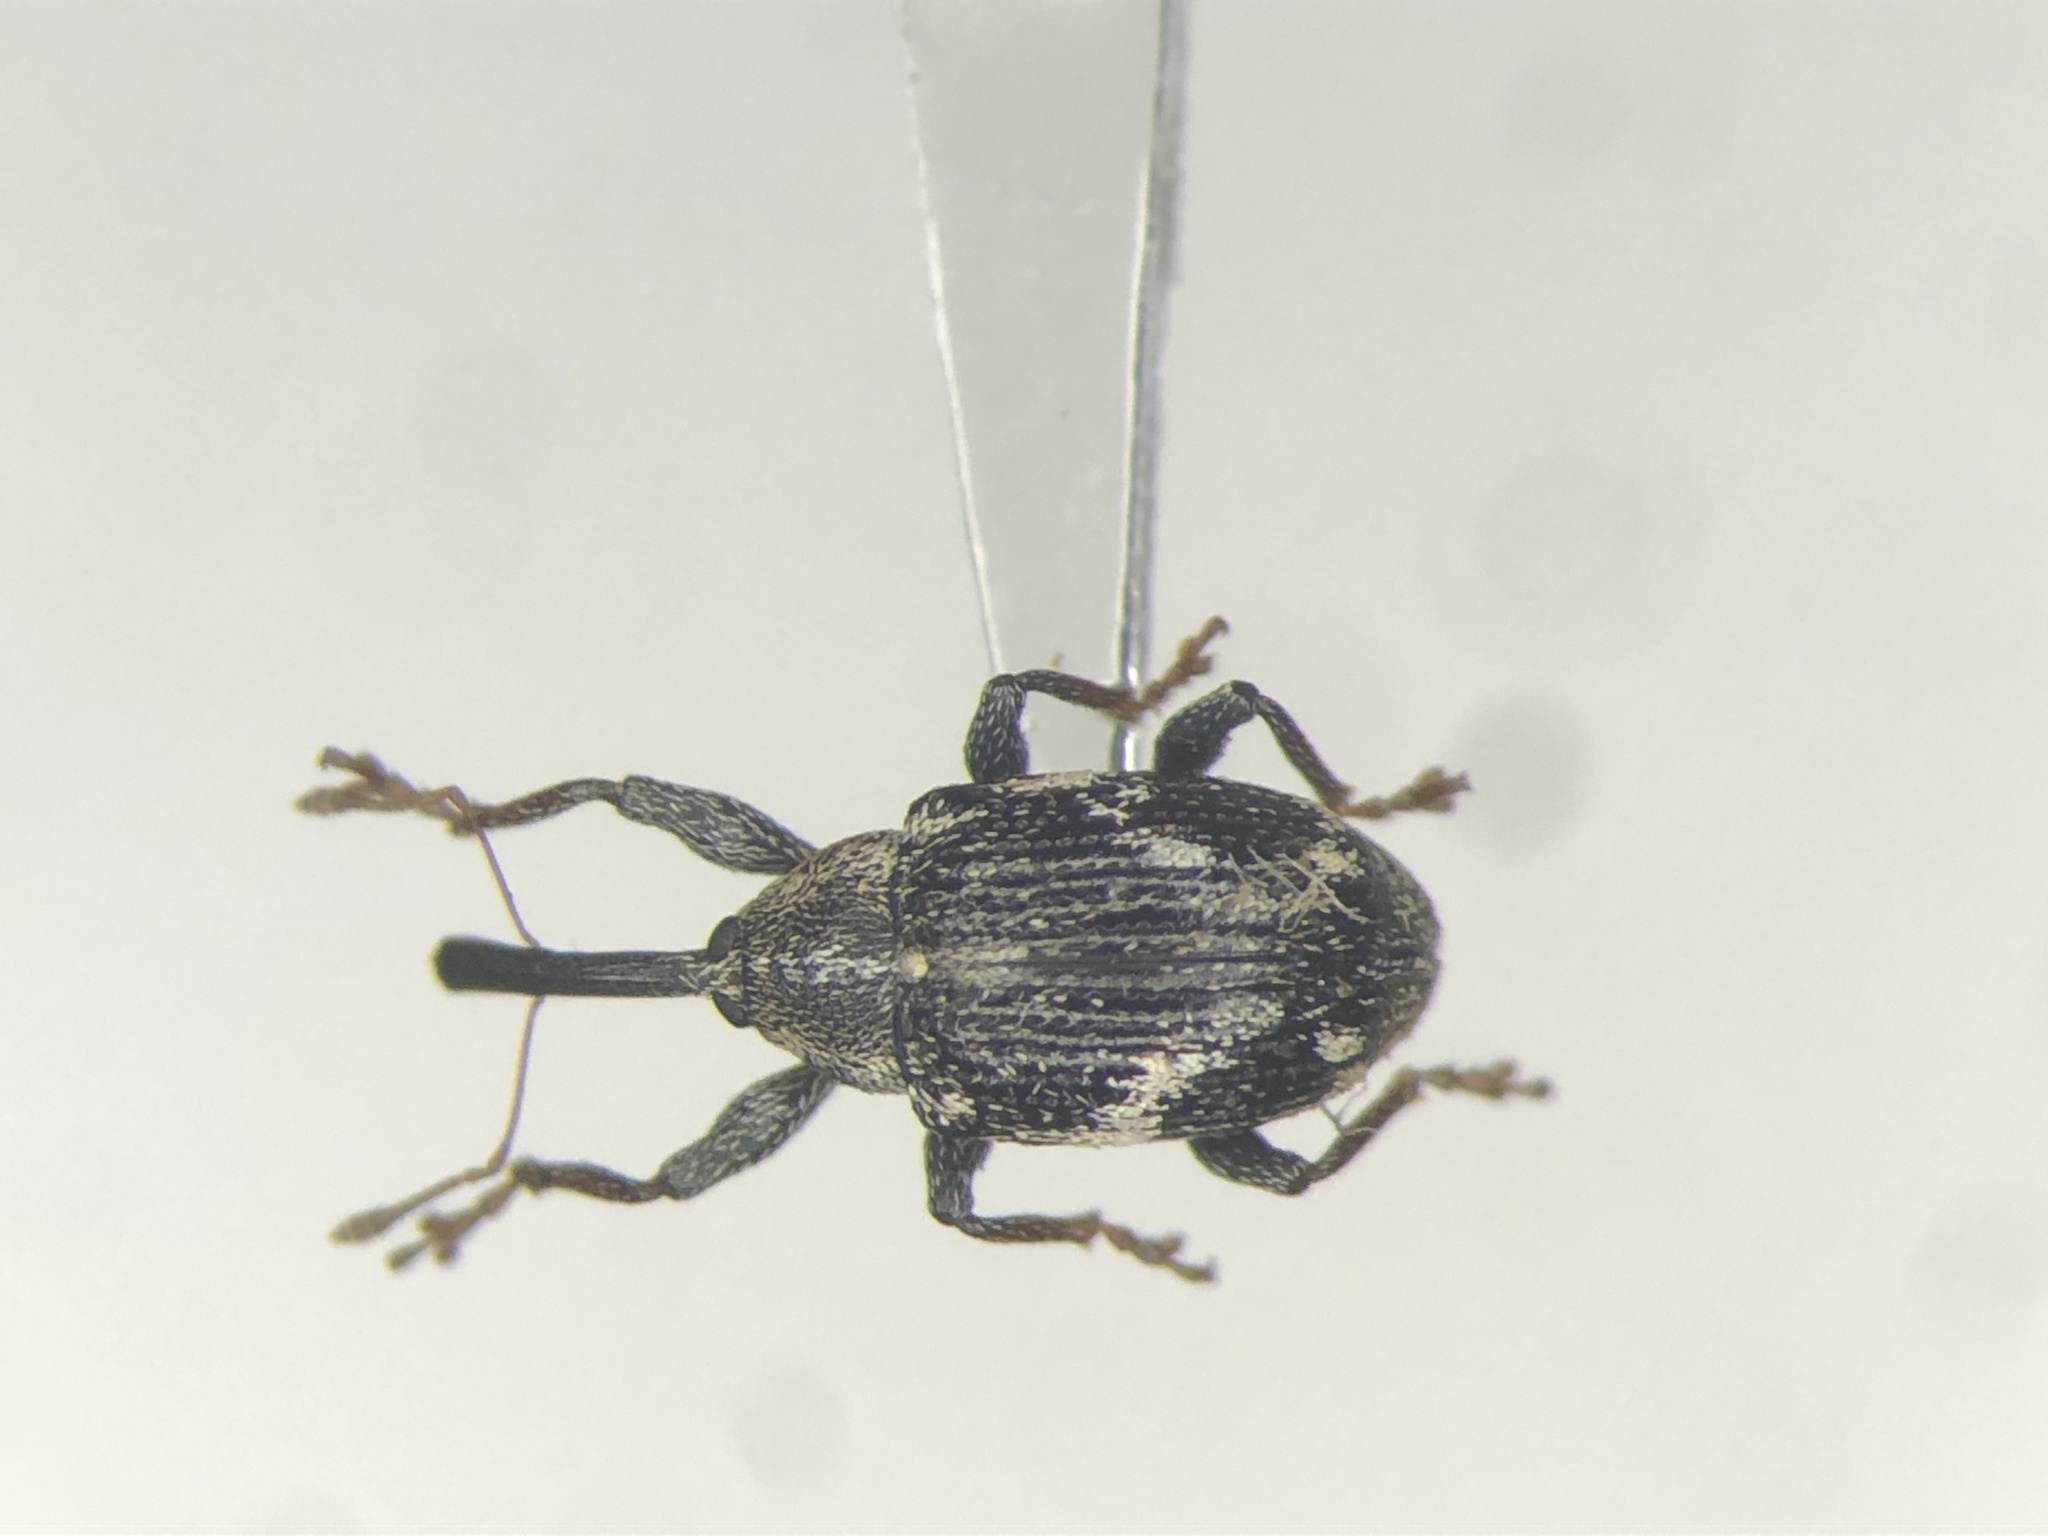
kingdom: Animalia
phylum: Arthropoda
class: Insecta
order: Coleoptera
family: Curculionidae
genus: Anthonomus
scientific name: Anthonomus lecontei
